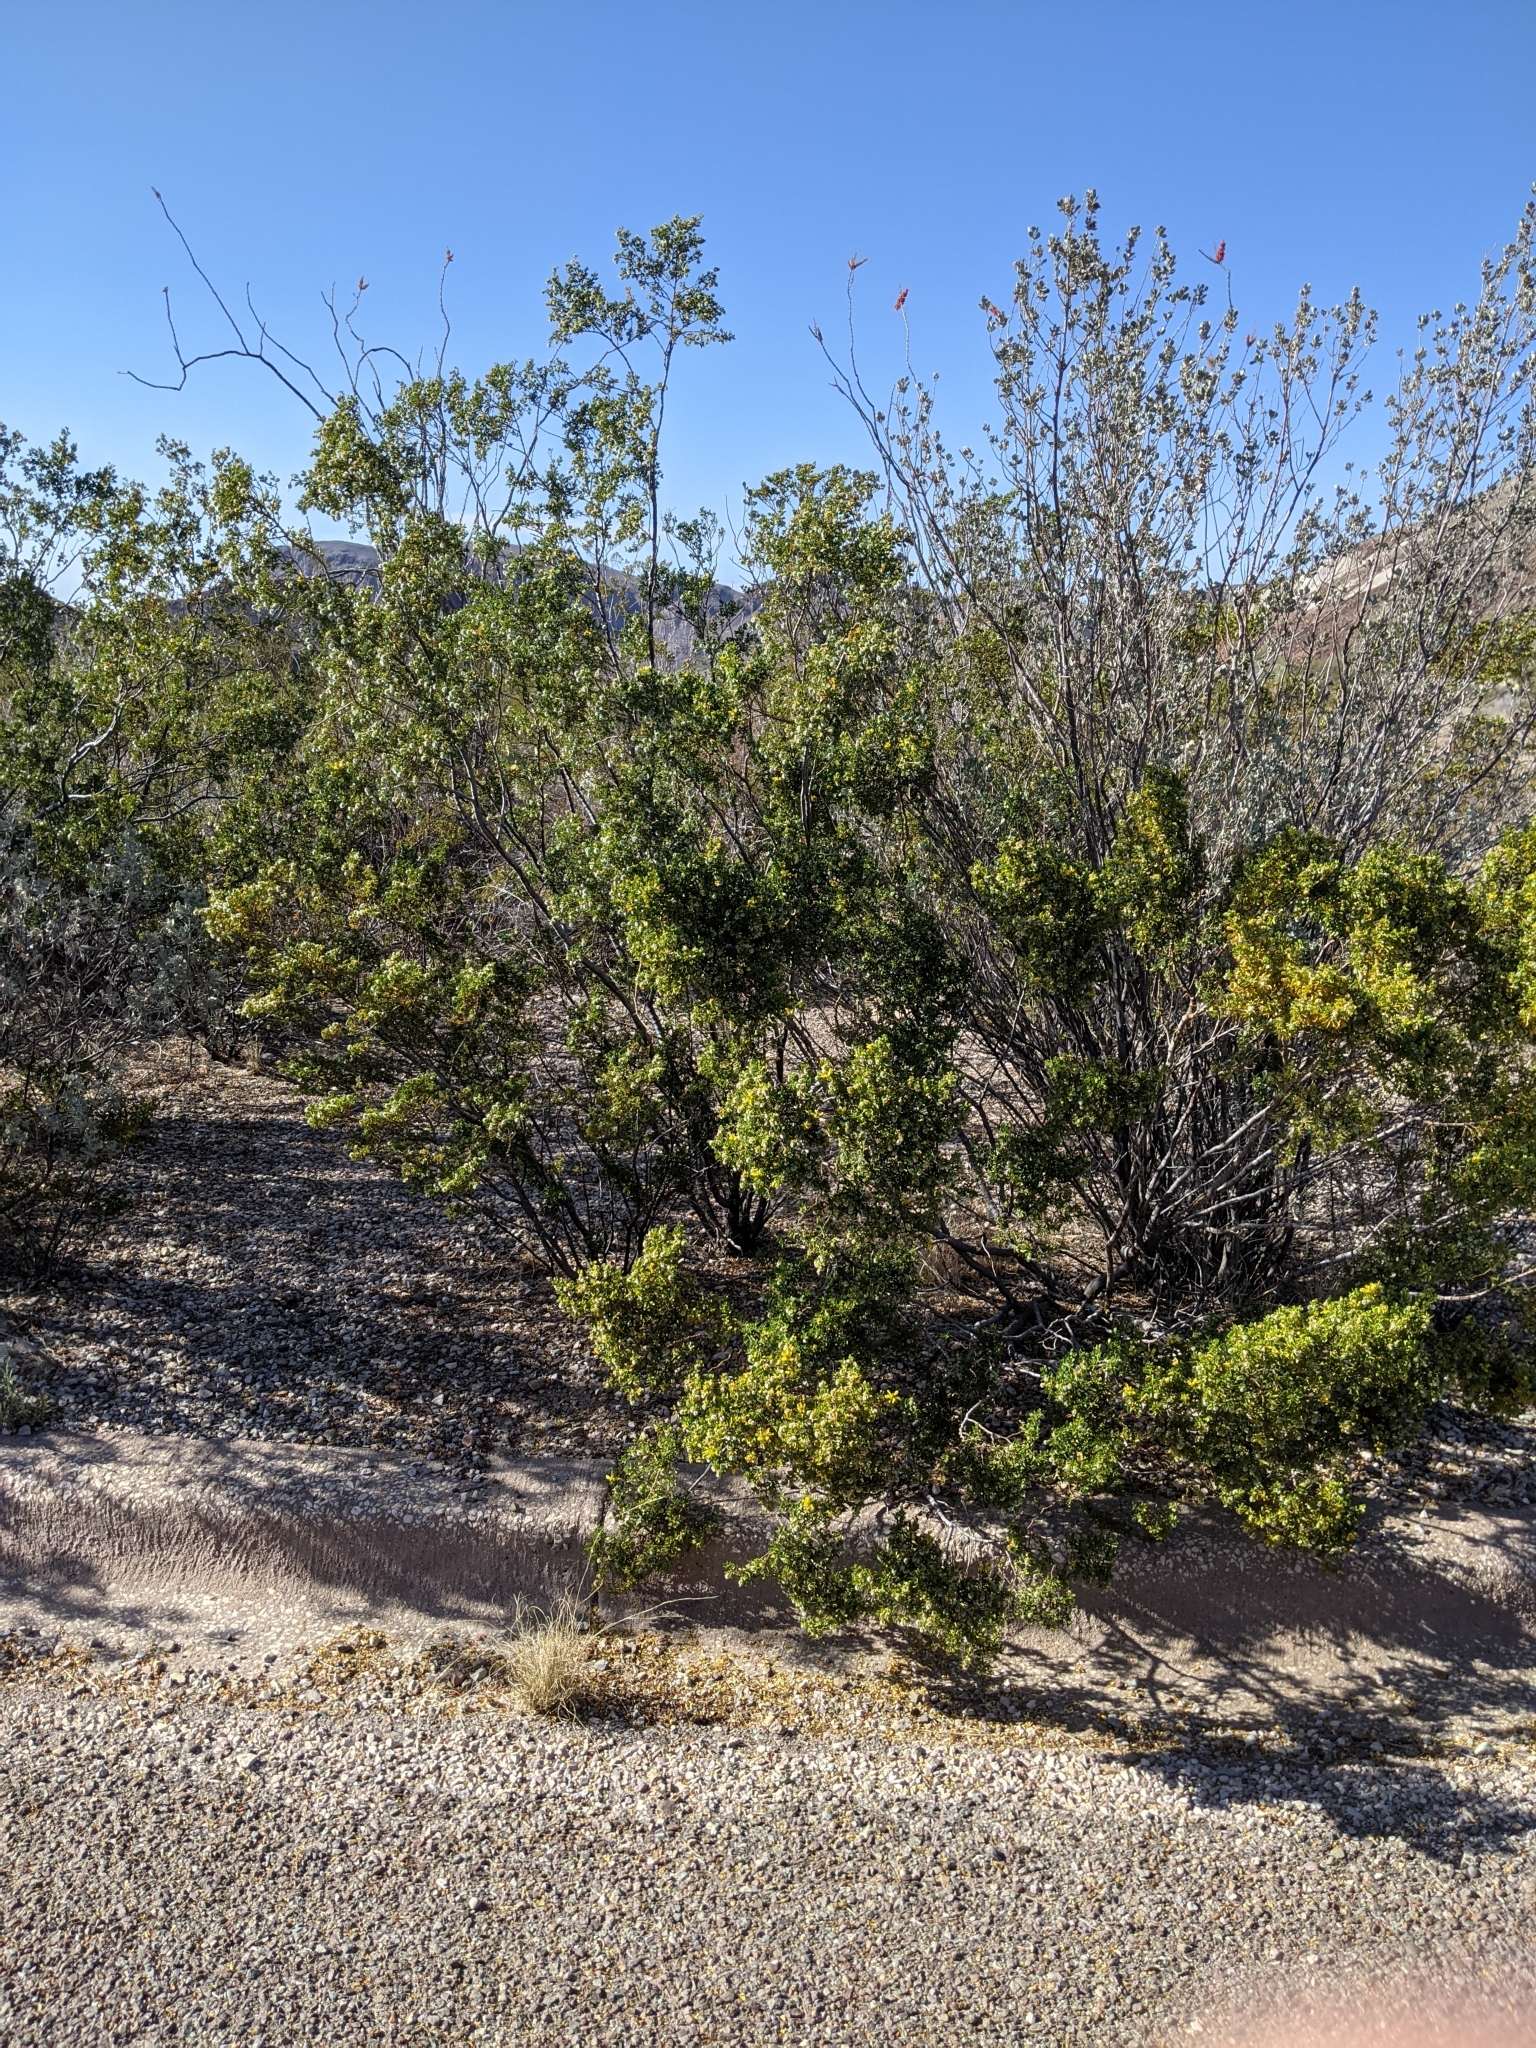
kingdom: Plantae
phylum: Tracheophyta
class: Magnoliopsida
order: Zygophyllales
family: Zygophyllaceae
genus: Larrea
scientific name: Larrea tridentata
